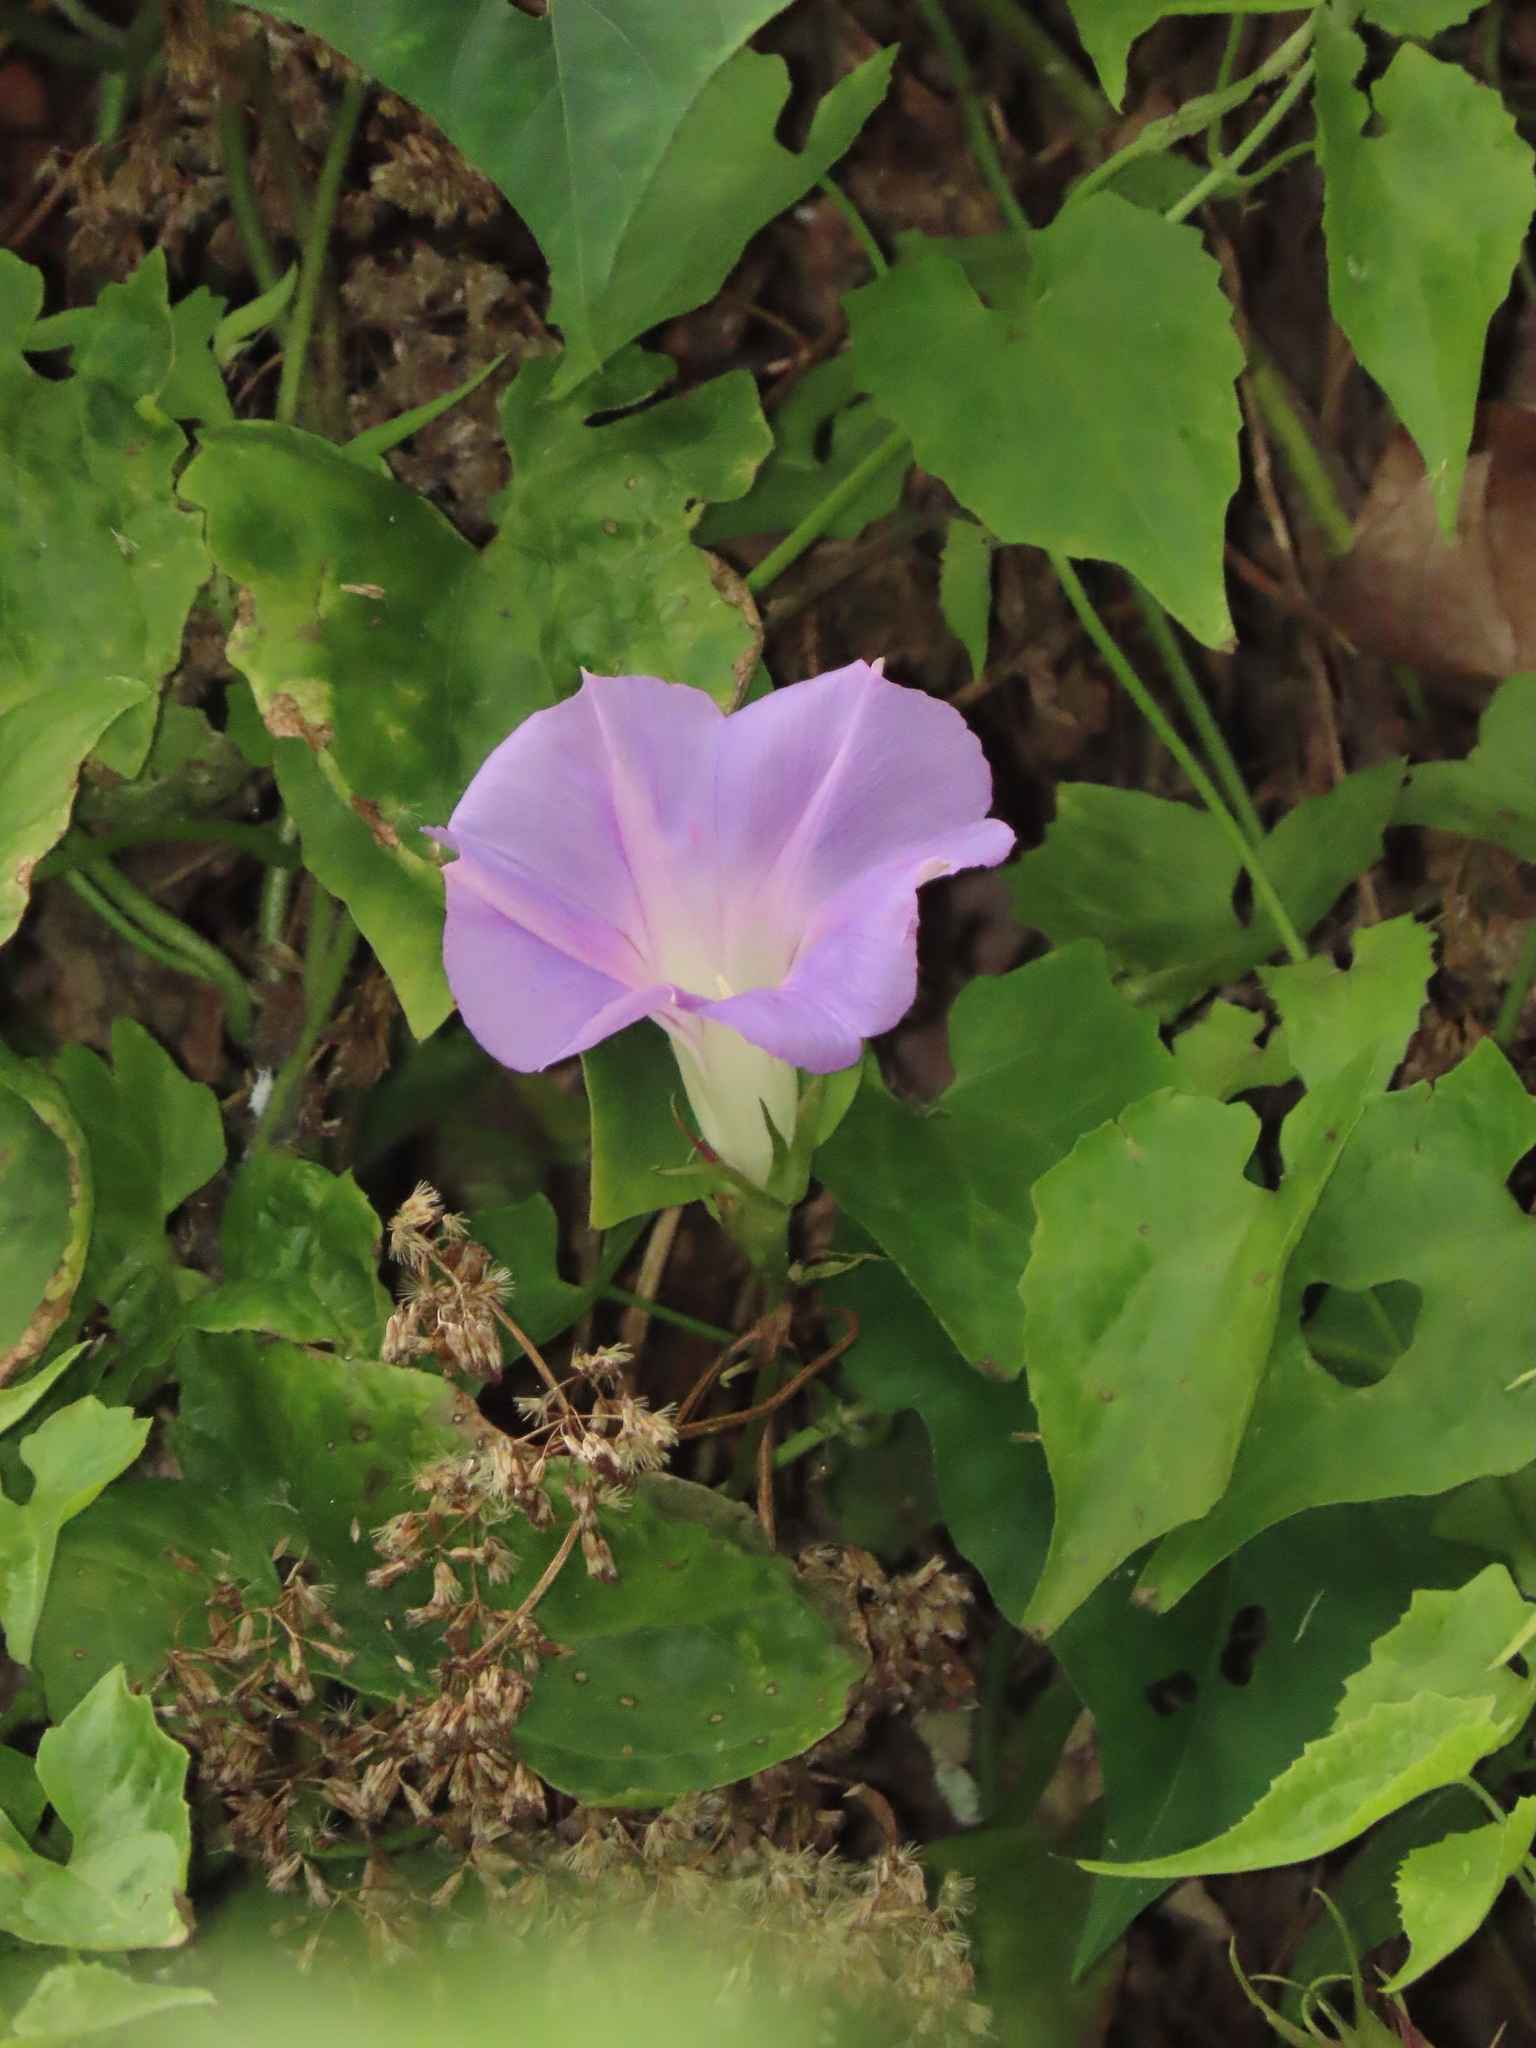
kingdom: Plantae
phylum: Tracheophyta
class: Magnoliopsida
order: Solanales
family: Convolvulaceae
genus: Ipomoea
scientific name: Ipomoea indica
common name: Blue dawnflower
